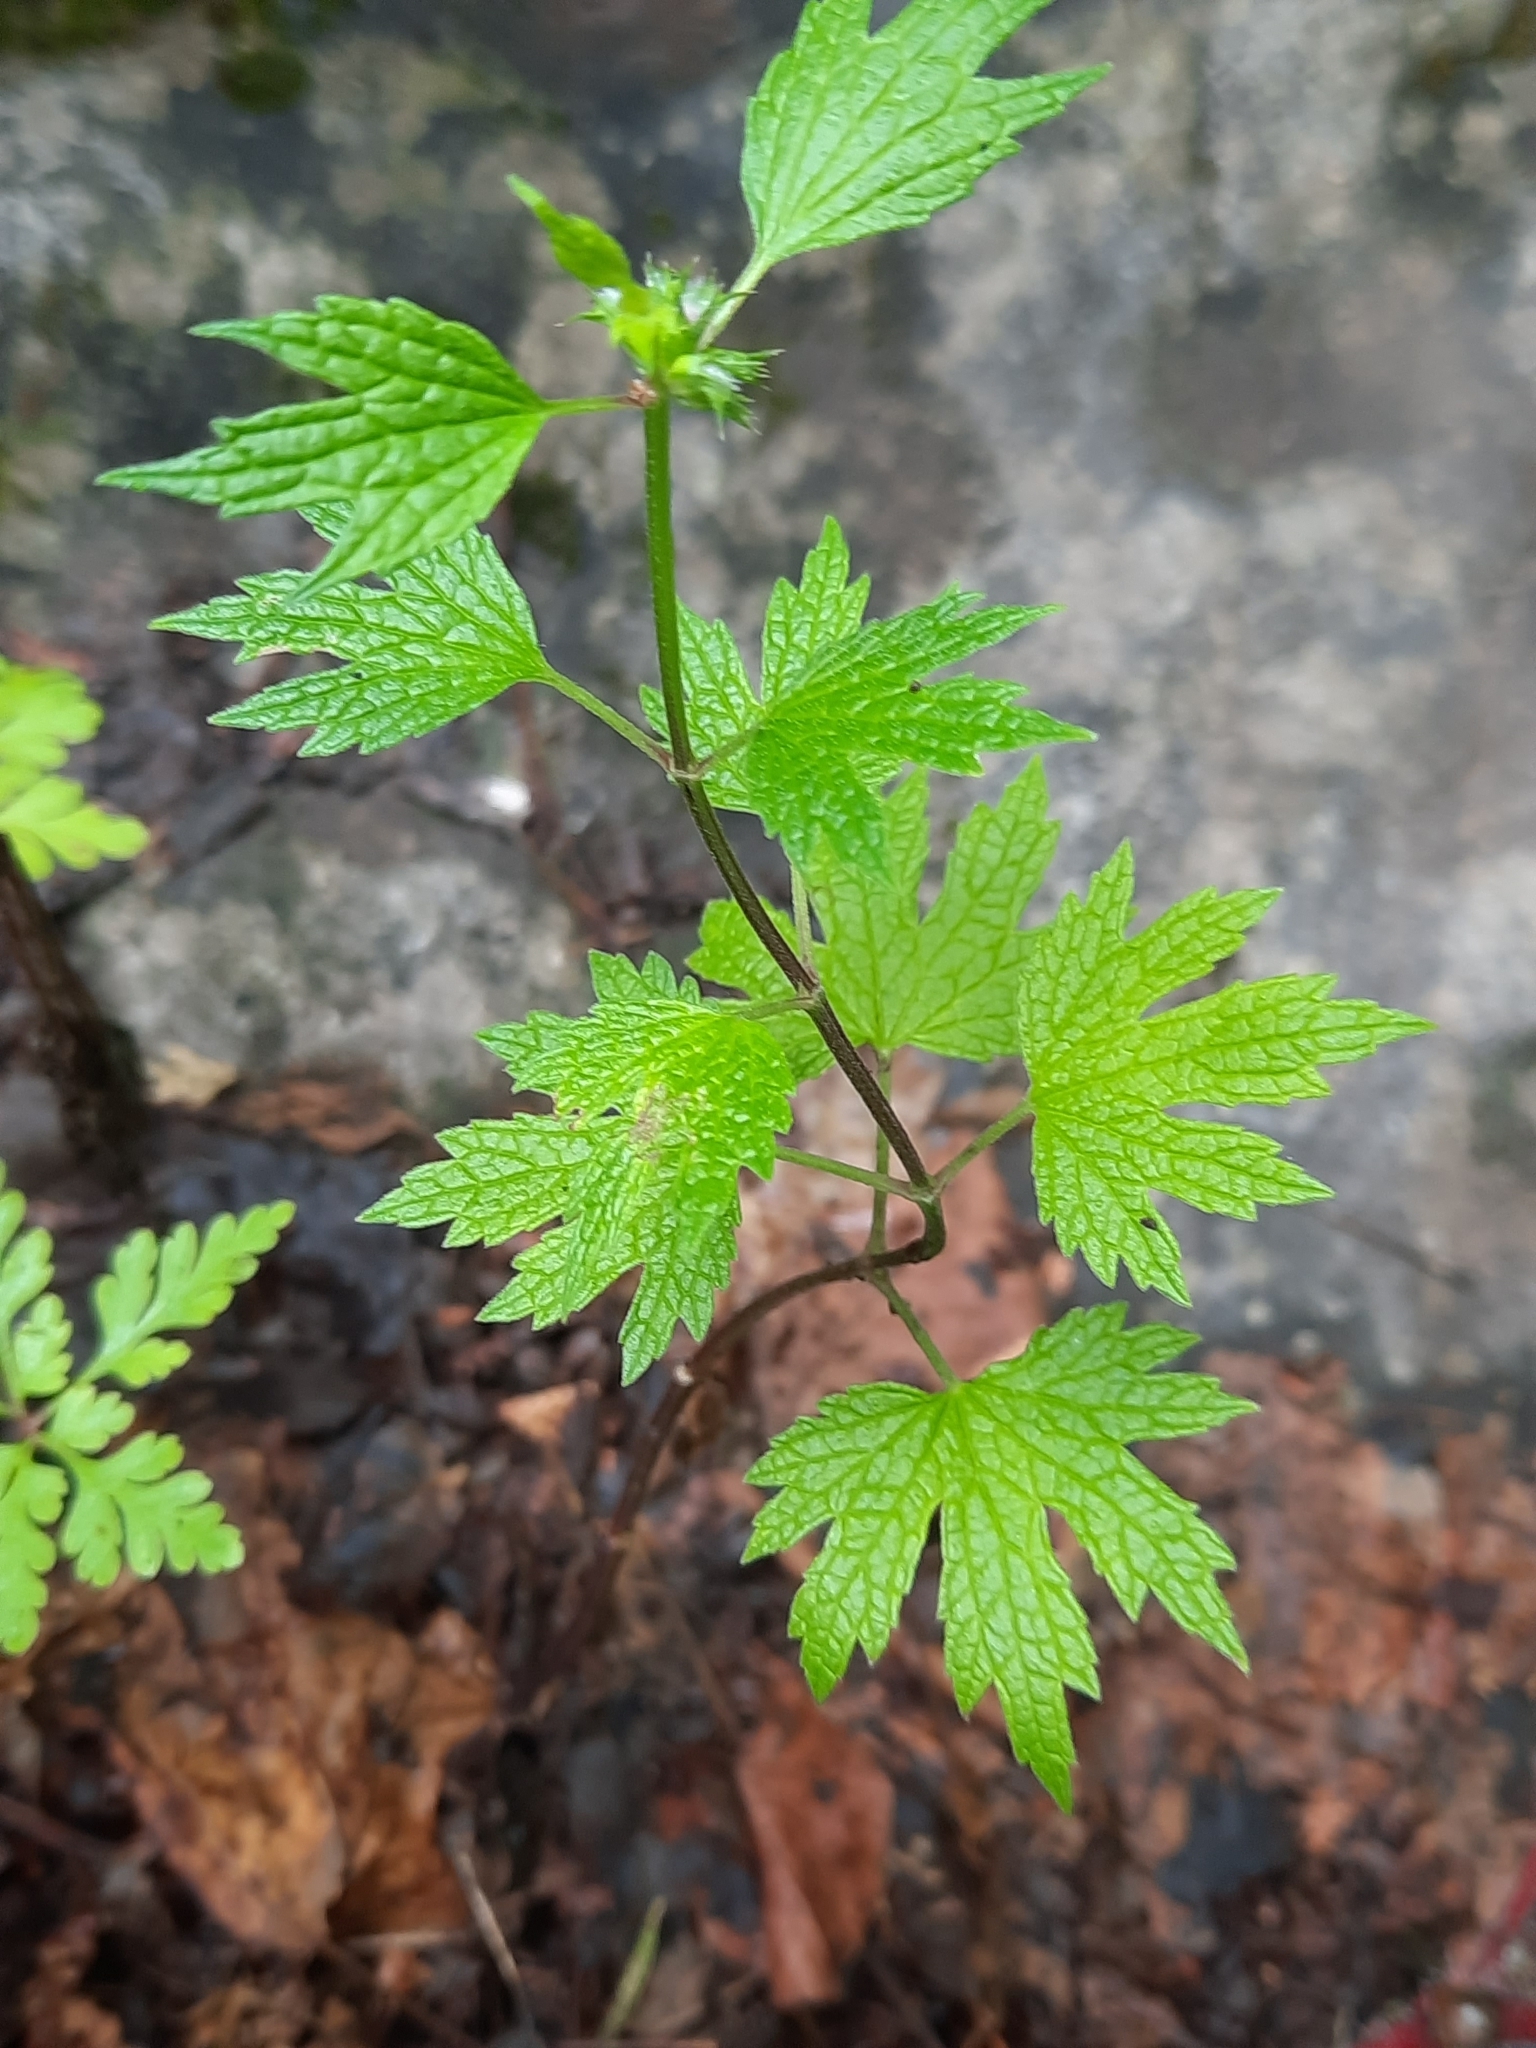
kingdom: Plantae
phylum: Tracheophyta
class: Magnoliopsida
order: Lamiales
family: Lamiaceae
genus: Leonurus
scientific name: Leonurus cardiaca
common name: Motherwort
